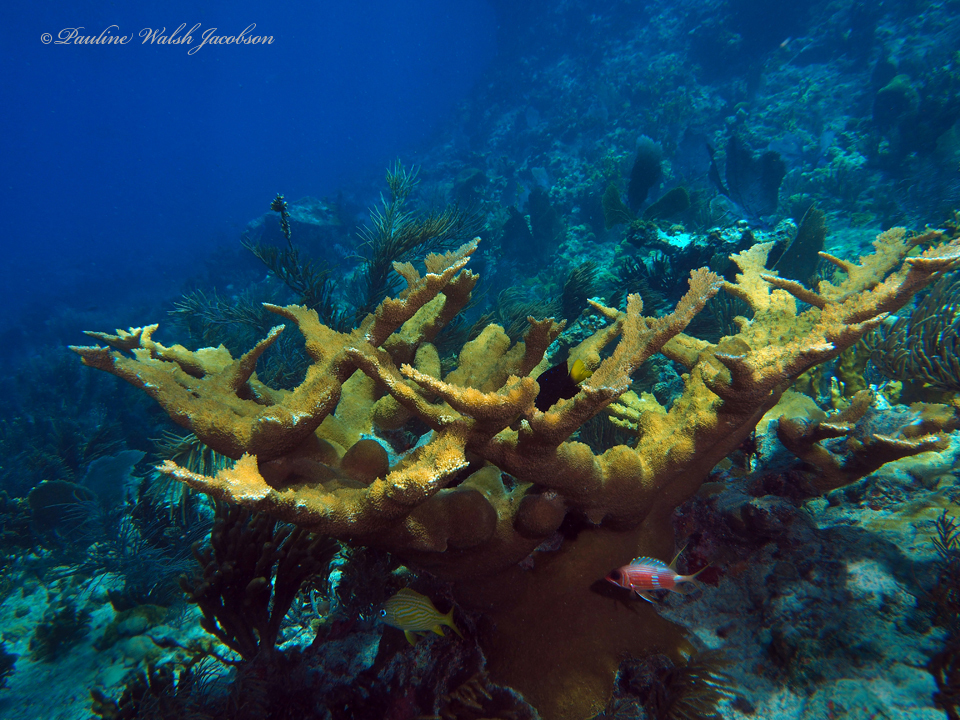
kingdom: Animalia
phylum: Chordata
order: Perciformes
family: Haemulidae
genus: Haemulon
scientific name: Haemulon flavolineatum
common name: French grunt
